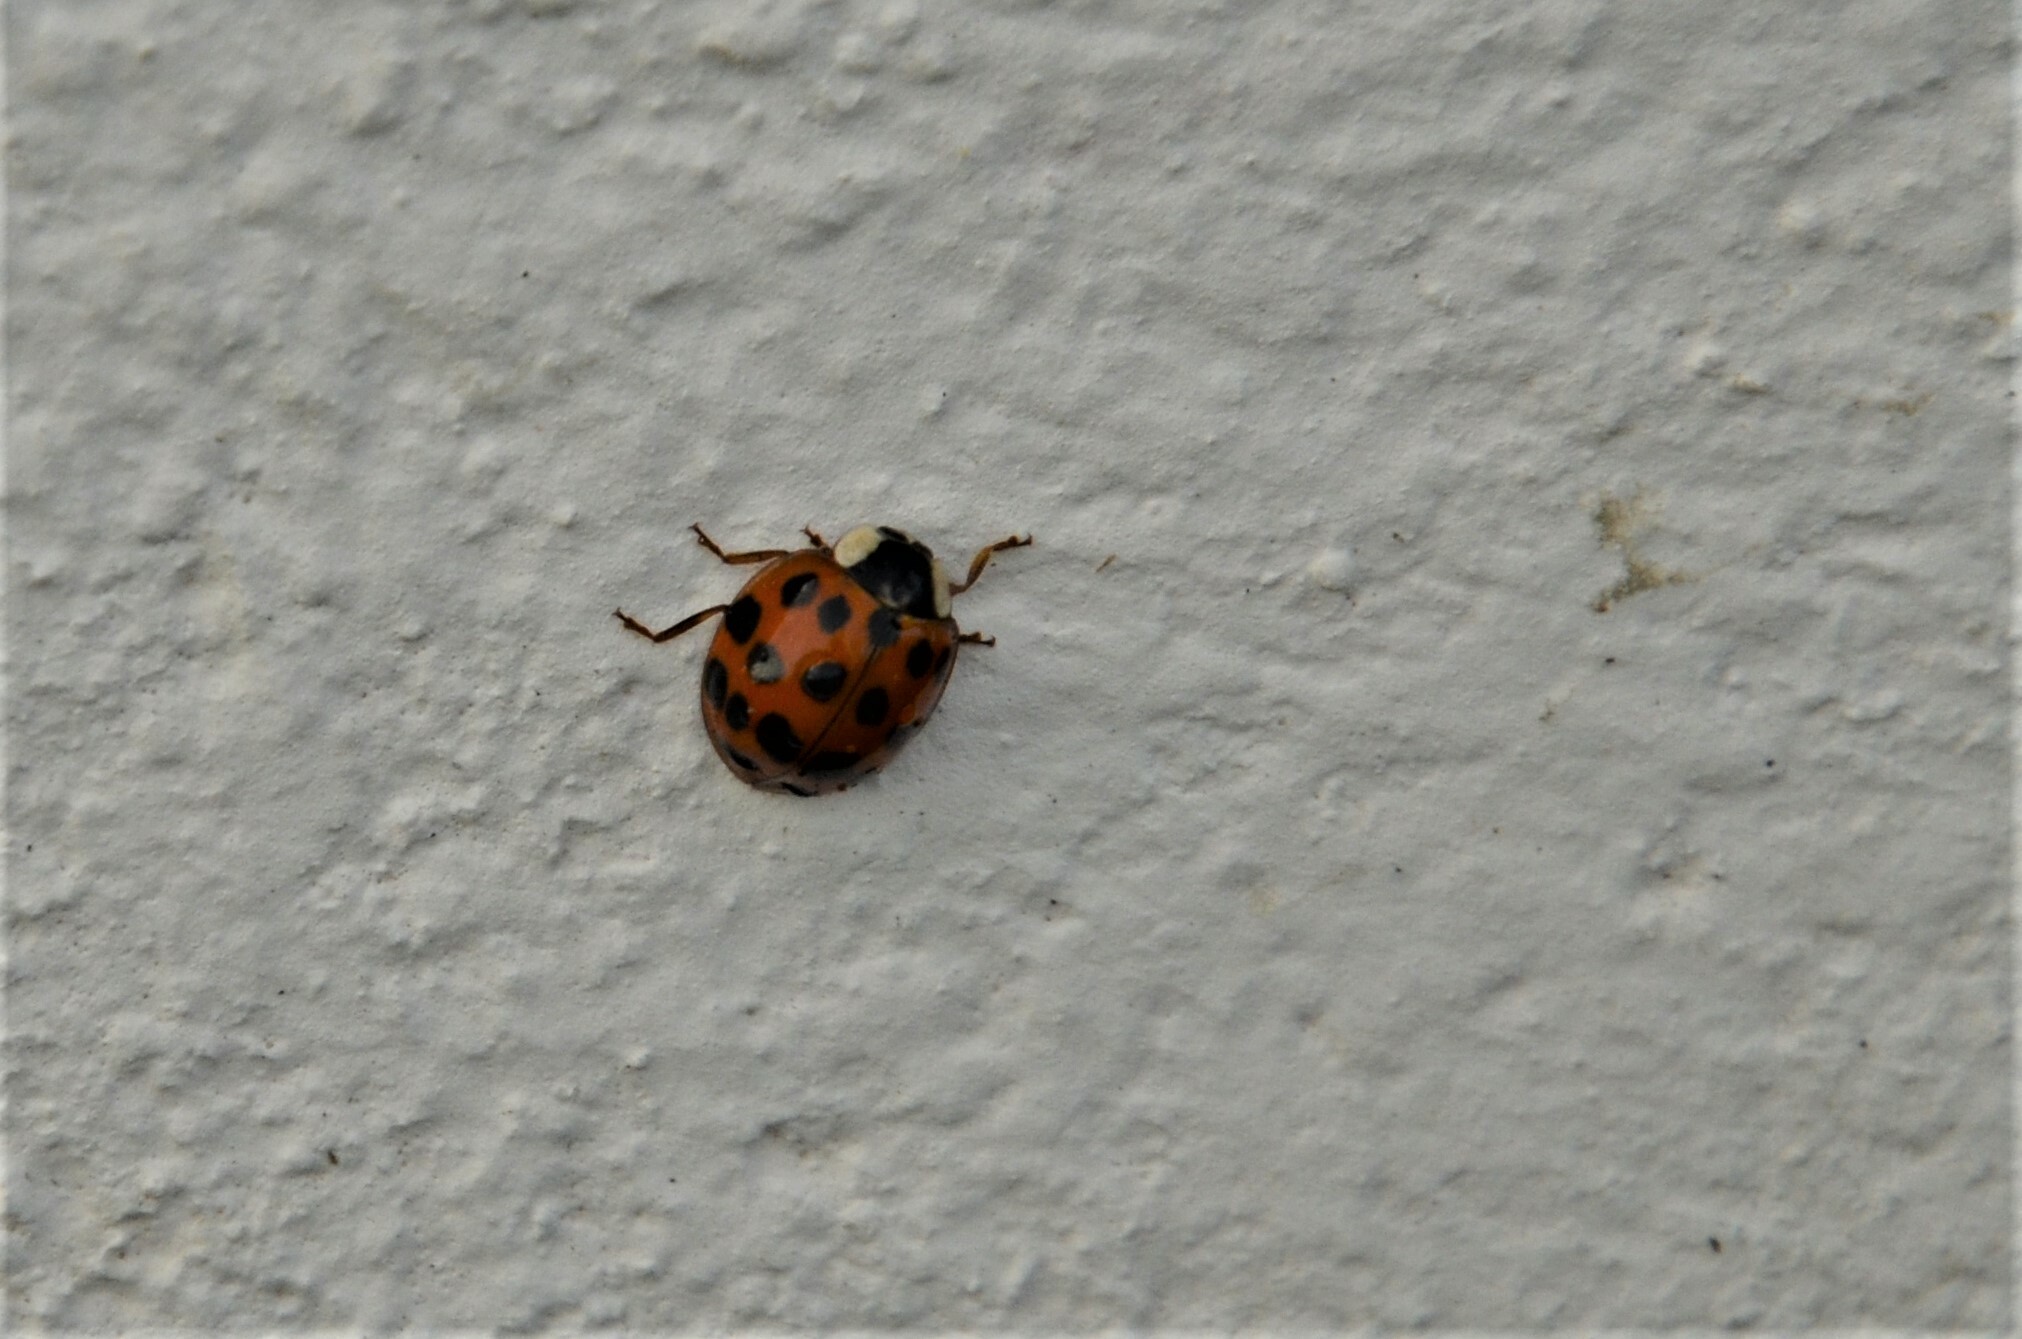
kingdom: Animalia
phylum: Arthropoda
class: Insecta
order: Coleoptera
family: Coccinellidae
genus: Harmonia
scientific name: Harmonia axyridis
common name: Harlequin ladybird
